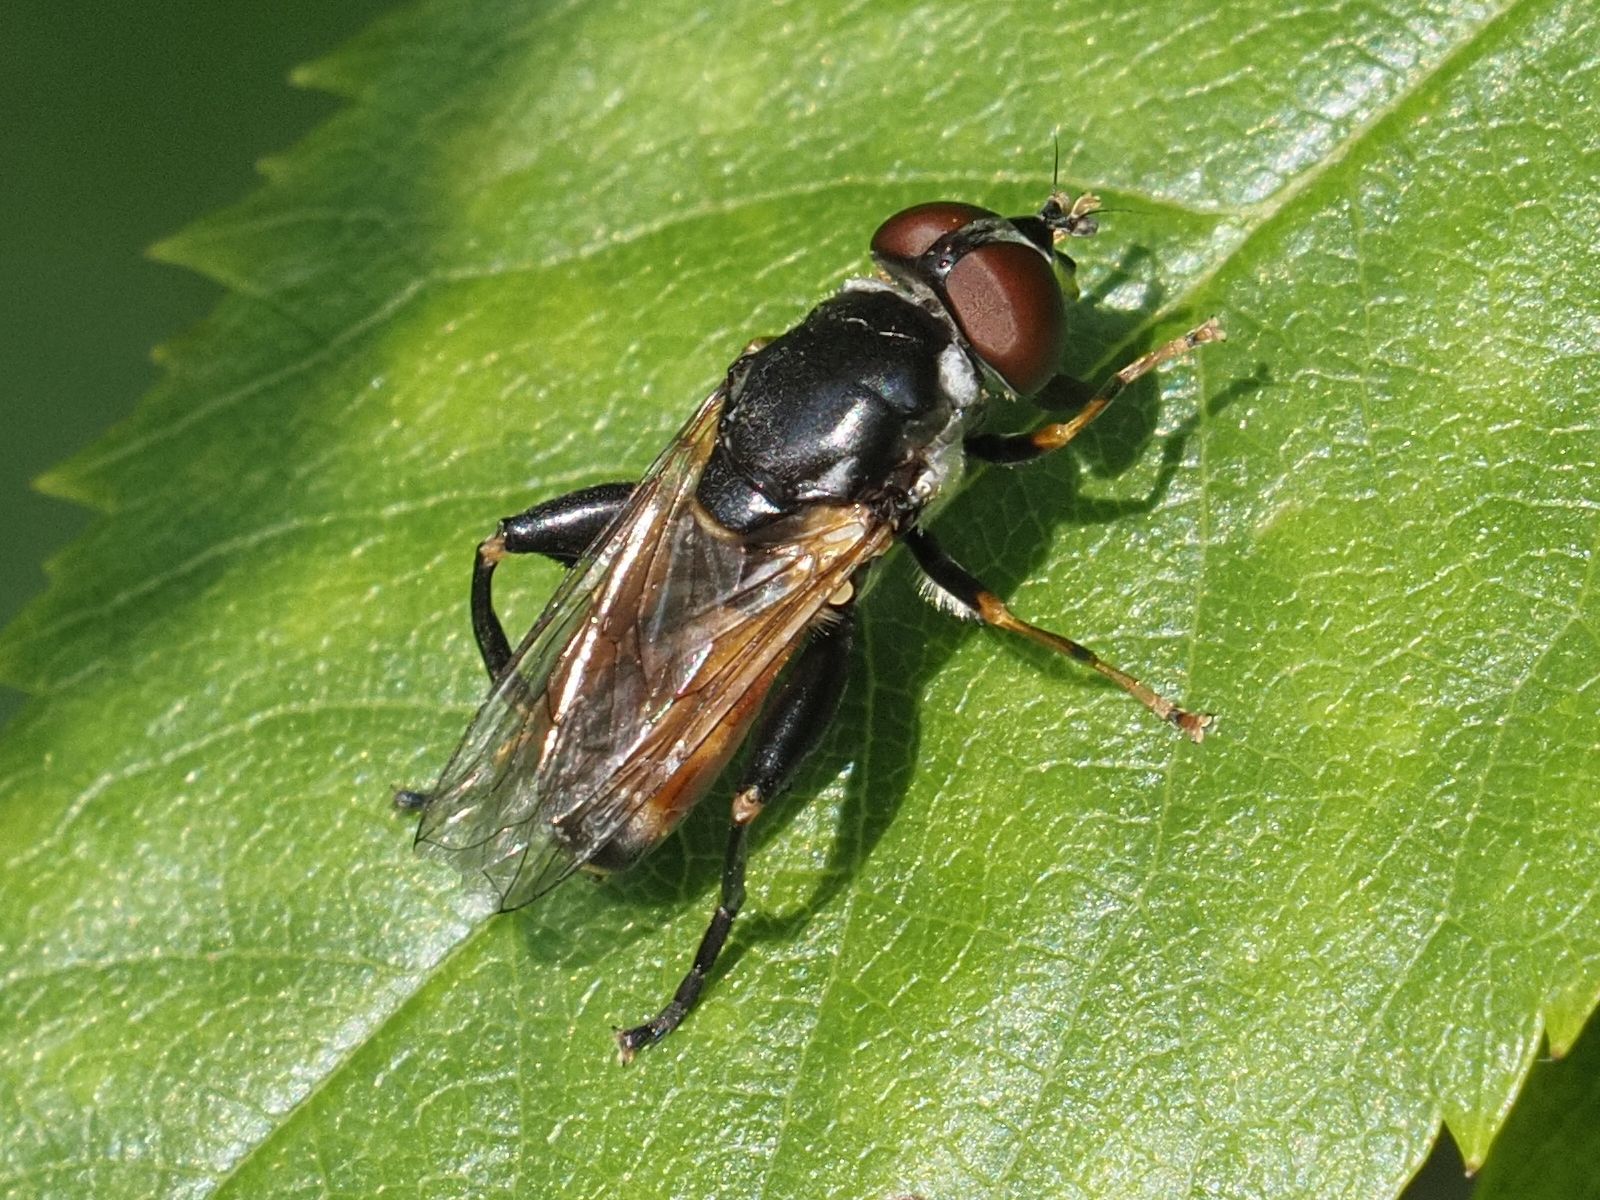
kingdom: Animalia
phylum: Arthropoda
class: Insecta
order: Diptera
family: Syrphidae
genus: Tropidia
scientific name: Tropidia scita
